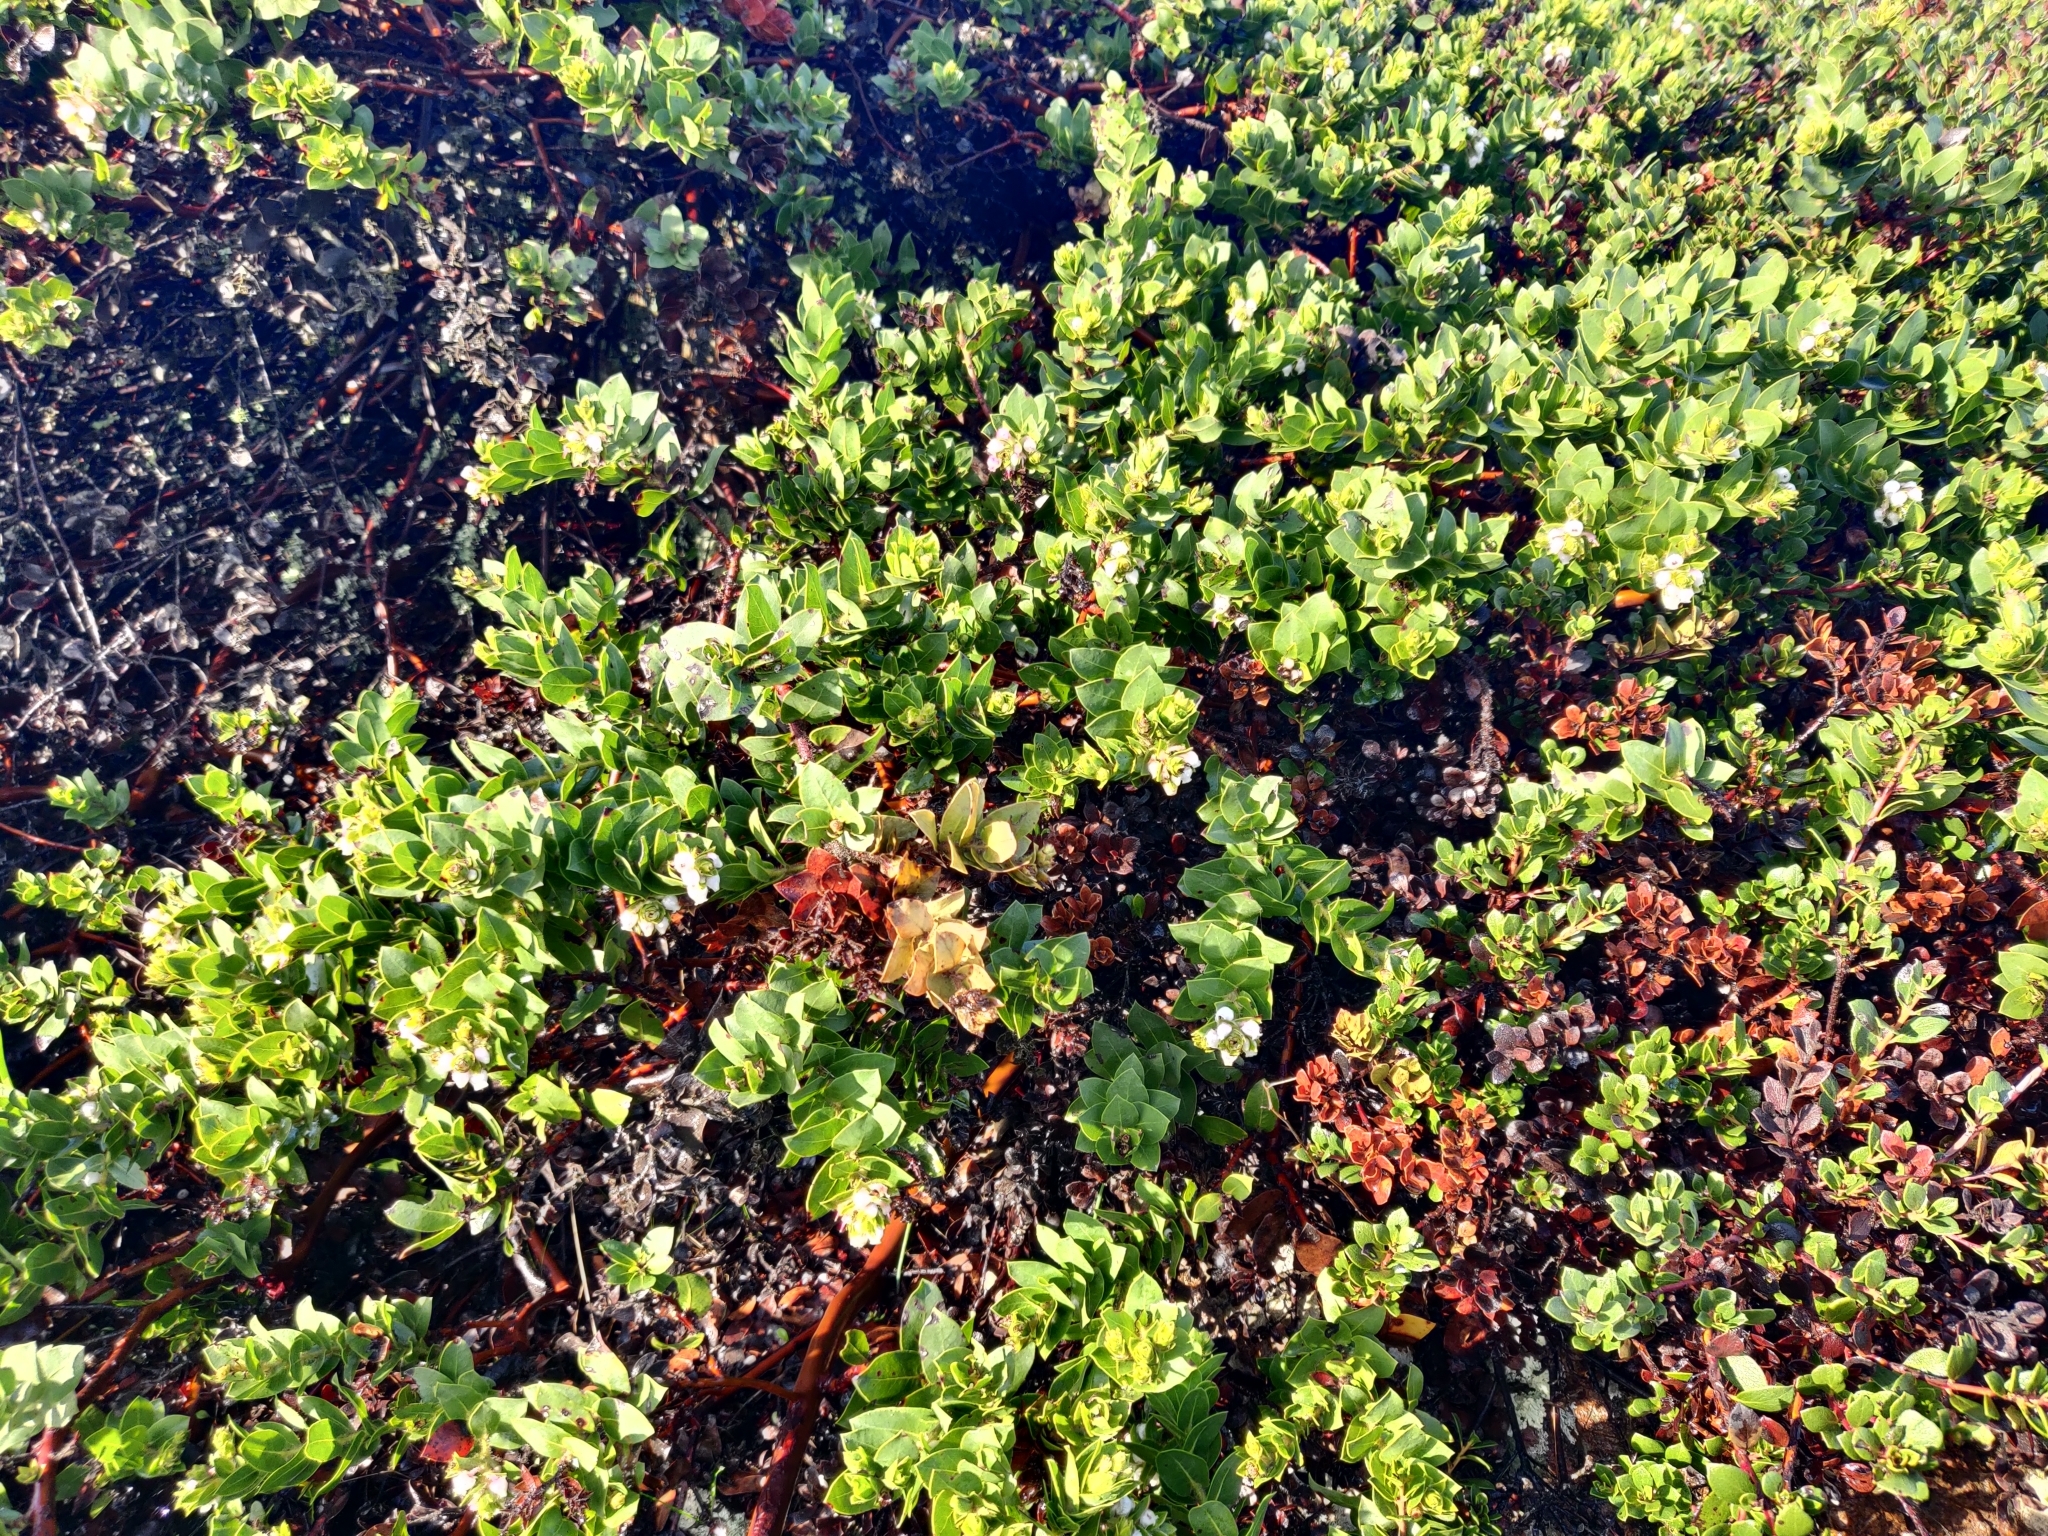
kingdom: Plantae
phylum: Tracheophyta
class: Magnoliopsida
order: Ericales
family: Ericaceae
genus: Arctostaphylos
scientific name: Arctostaphylos pacifica
